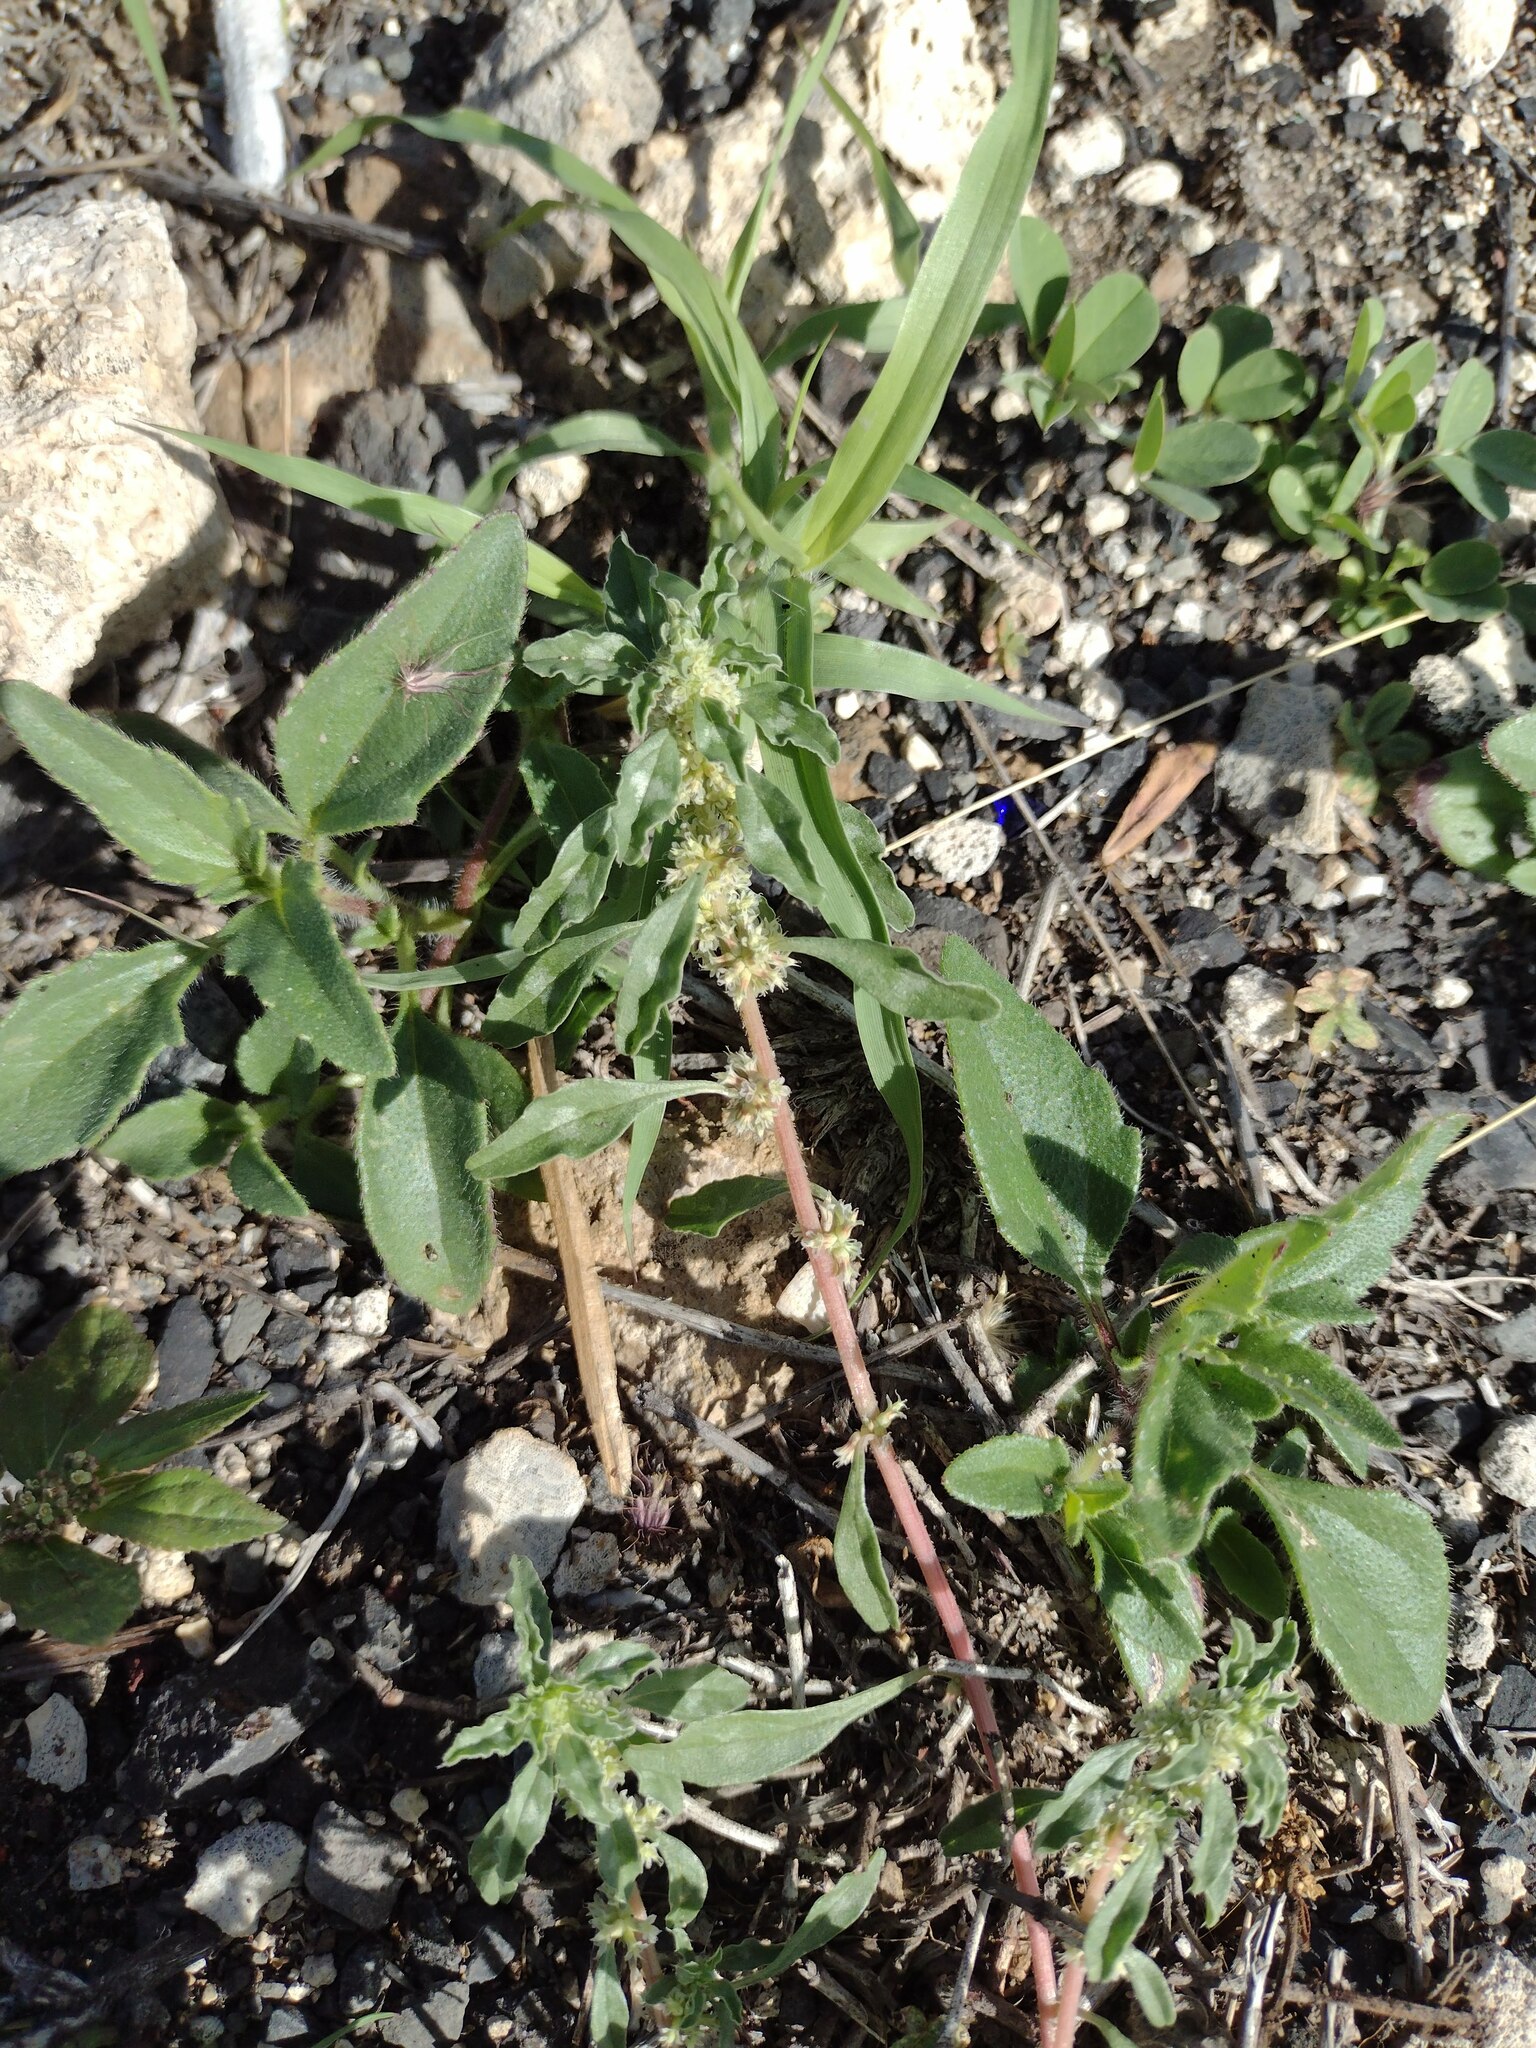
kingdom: Plantae
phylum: Tracheophyta
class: Magnoliopsida
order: Caryophyllales
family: Amaranthaceae
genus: Amaranthus
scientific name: Amaranthus polygonoides
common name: Tropical amaranth
